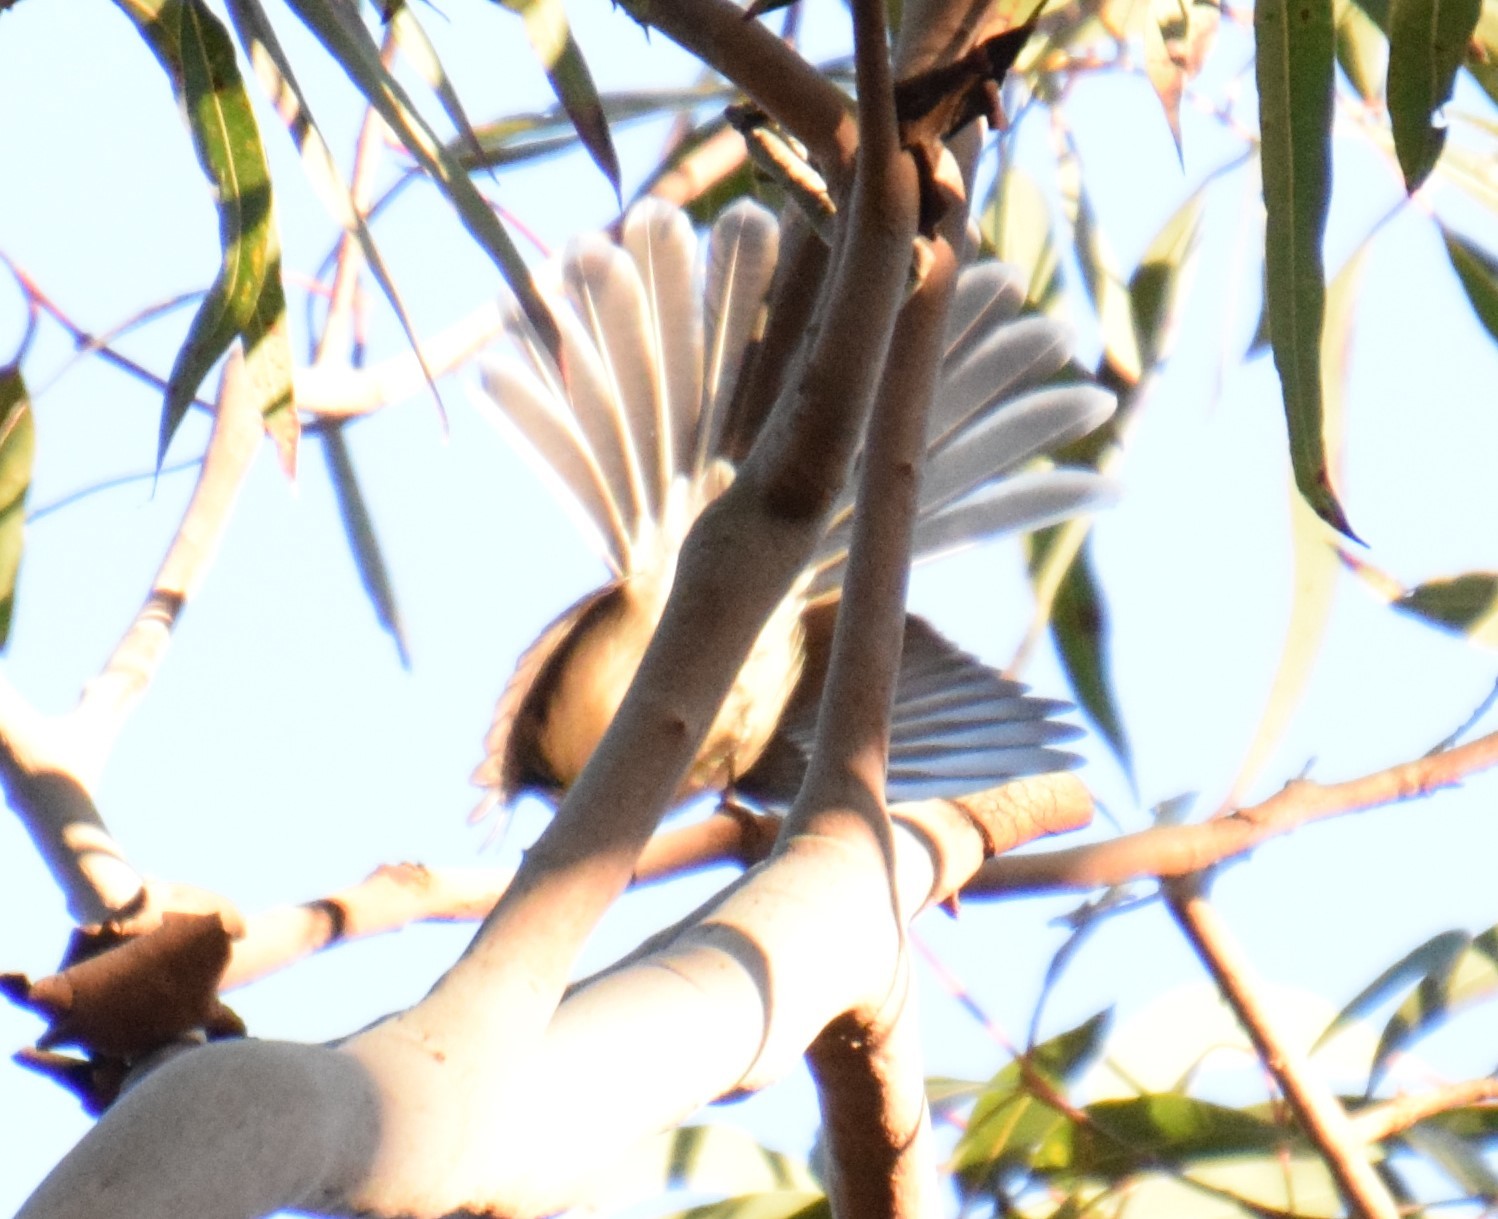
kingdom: Animalia
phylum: Chordata
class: Aves
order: Passeriformes
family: Rhipiduridae
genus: Rhipidura
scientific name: Rhipidura albiscapa
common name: Grey fantail
